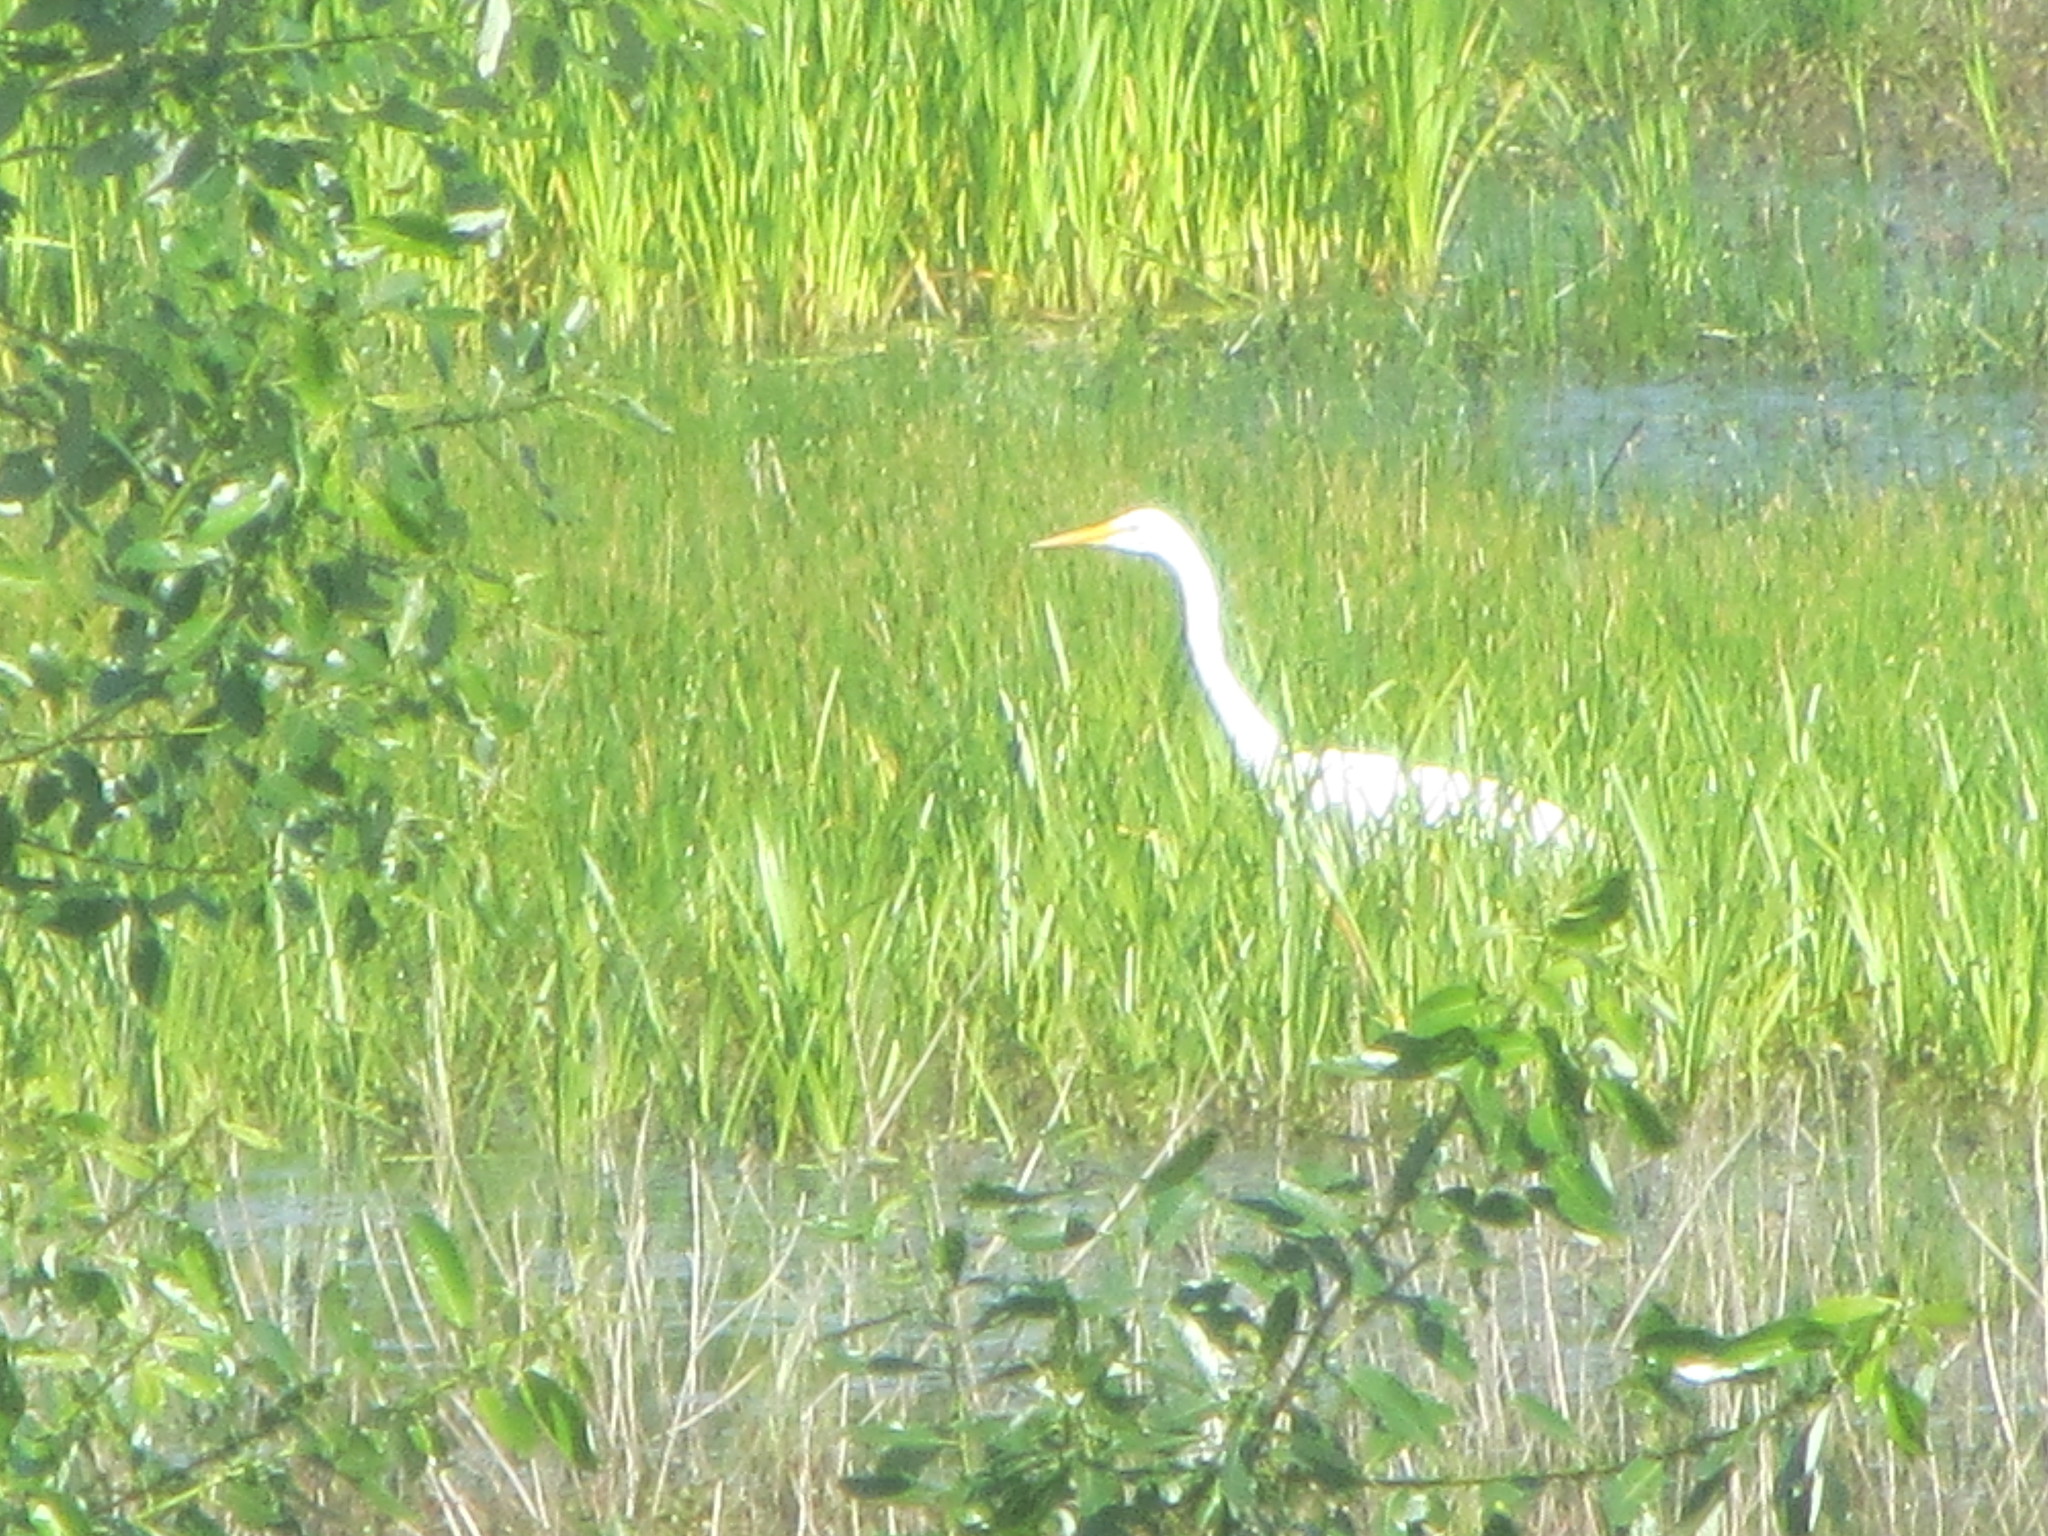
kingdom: Animalia
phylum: Chordata
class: Aves
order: Pelecaniformes
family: Ardeidae
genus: Ardea
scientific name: Ardea alba
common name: Great egret
